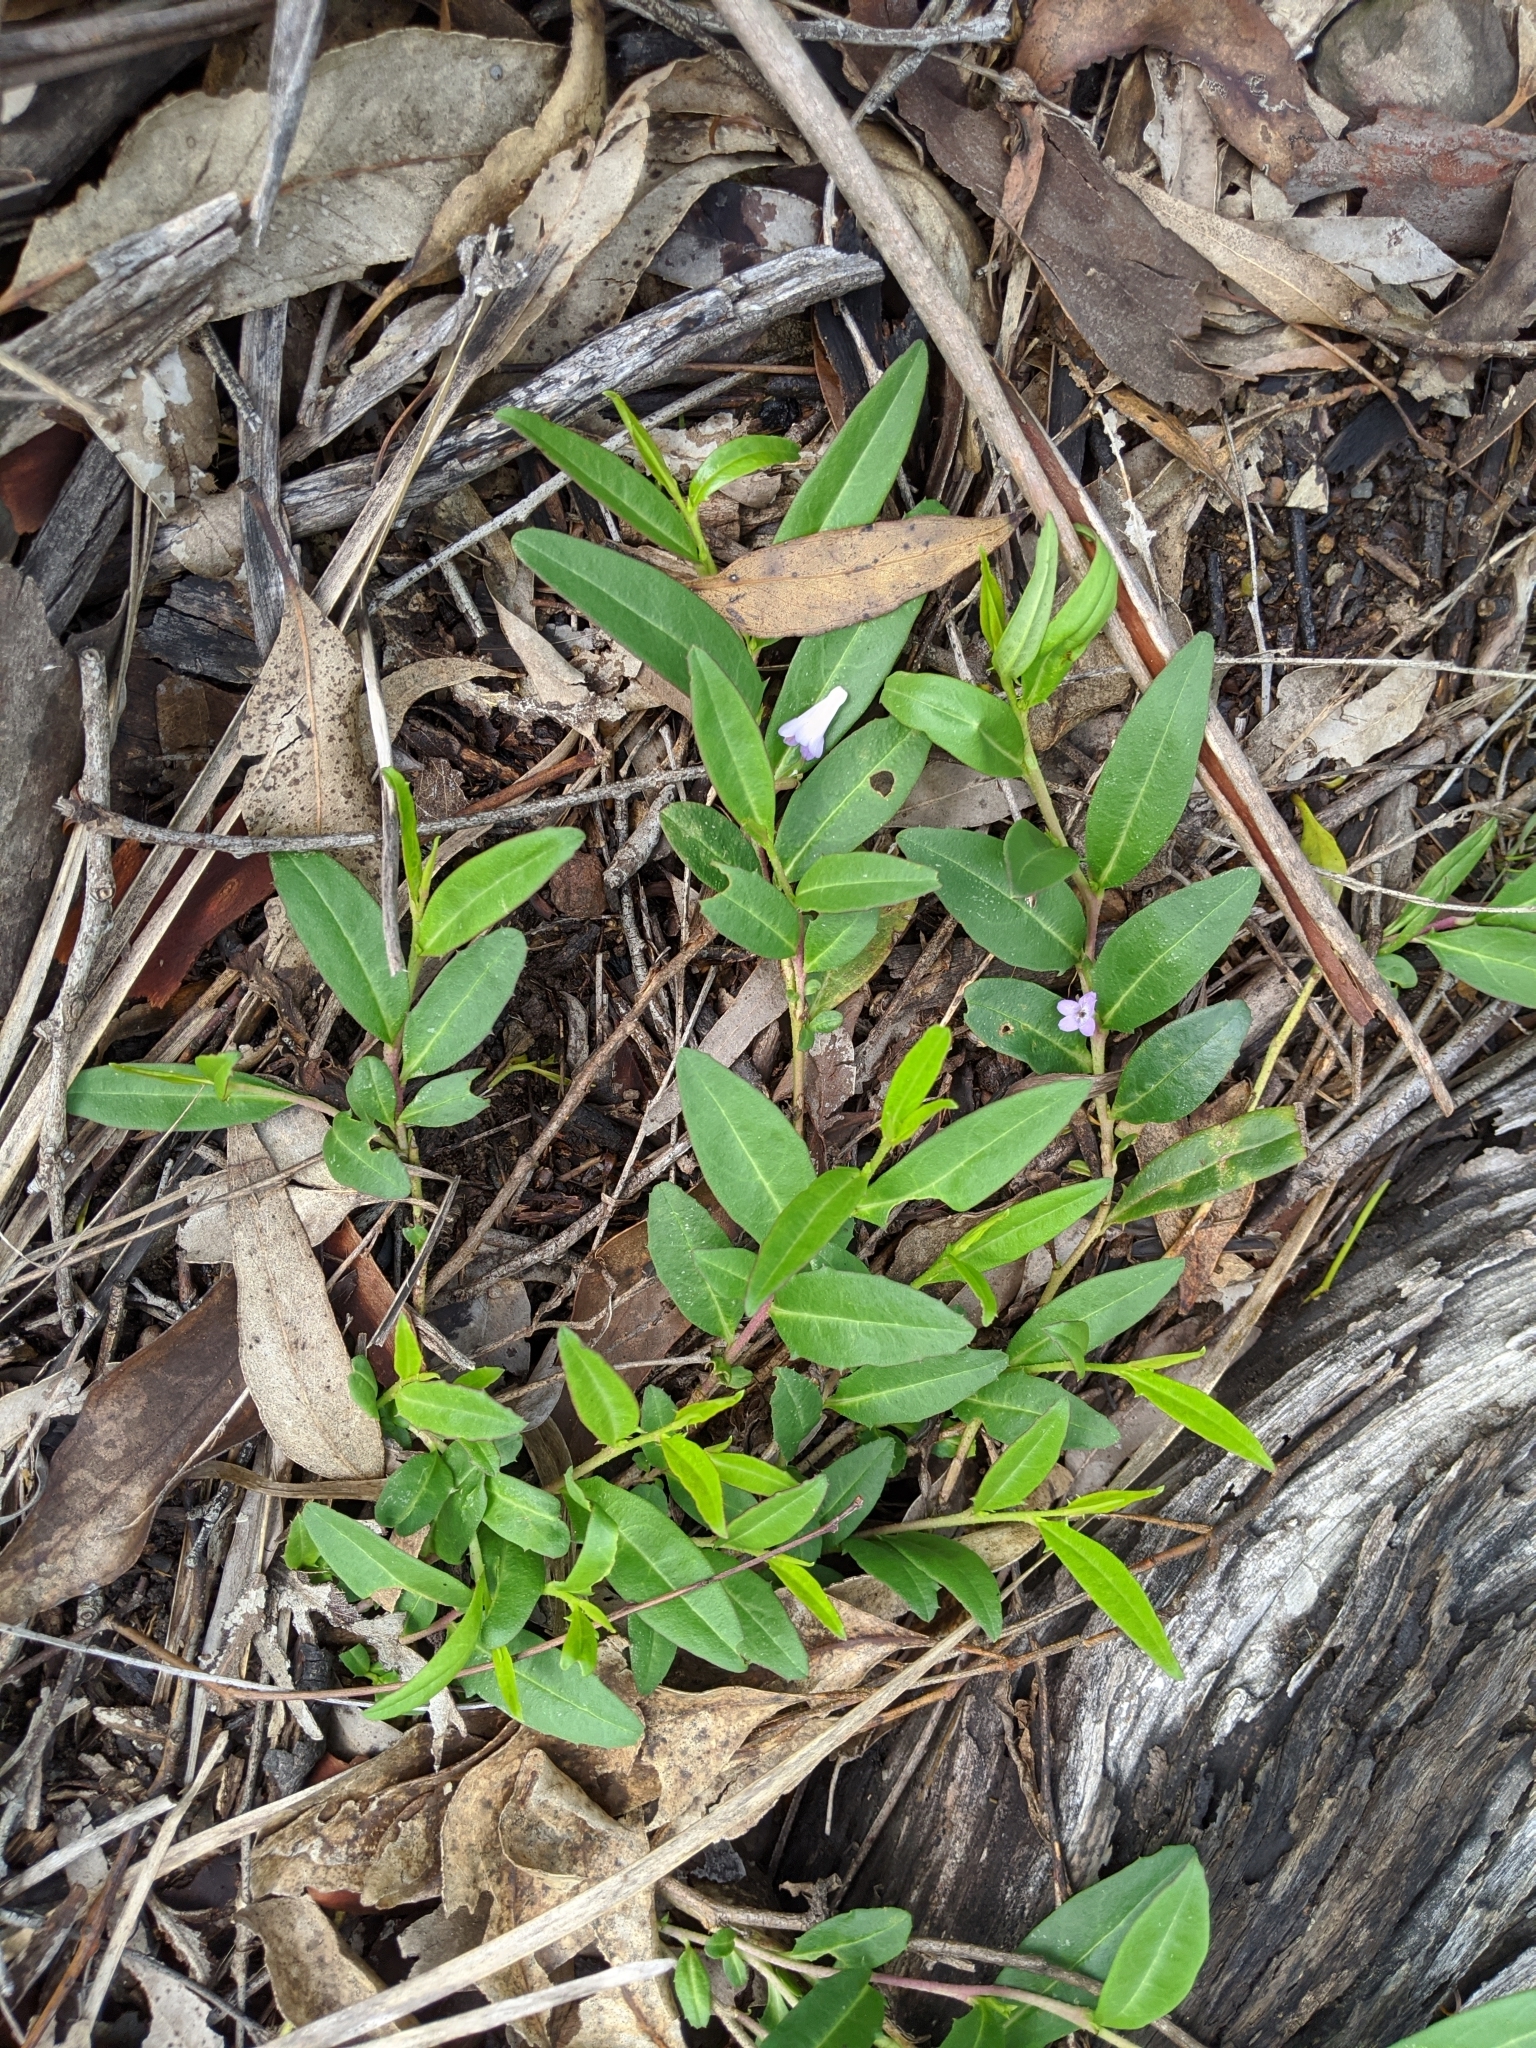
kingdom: Plantae
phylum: Tracheophyta
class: Magnoliopsida
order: Lamiales
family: Scrophulariaceae
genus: Eremophila
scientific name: Eremophila debilis
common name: Winter-apple
